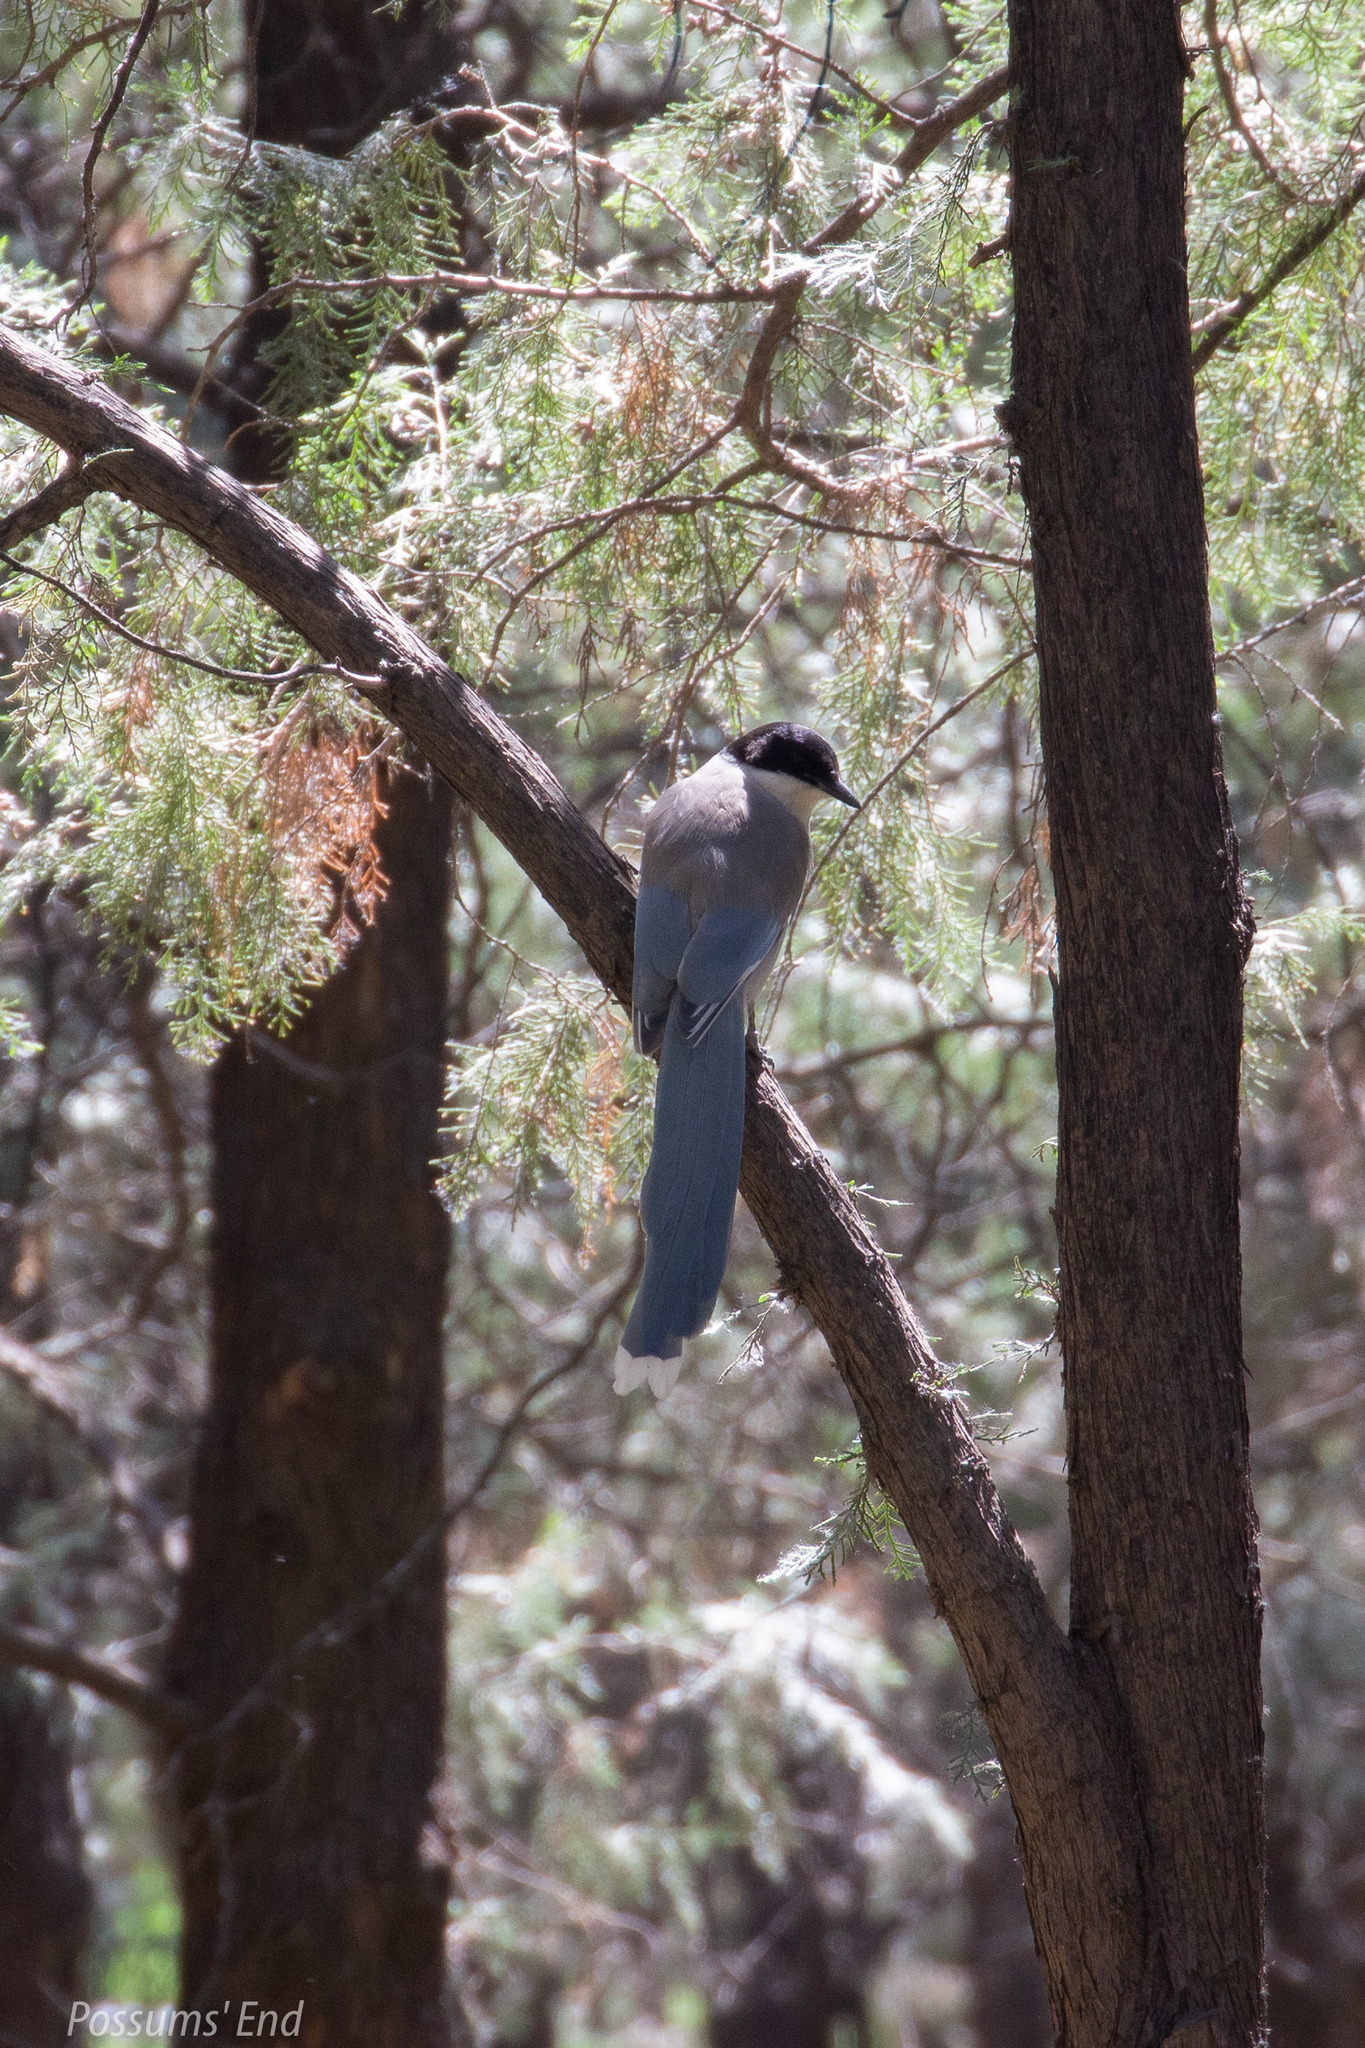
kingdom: Animalia
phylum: Chordata
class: Aves
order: Passeriformes
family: Corvidae
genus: Cyanopica
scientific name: Cyanopica cyanus
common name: Azure-winged magpie
